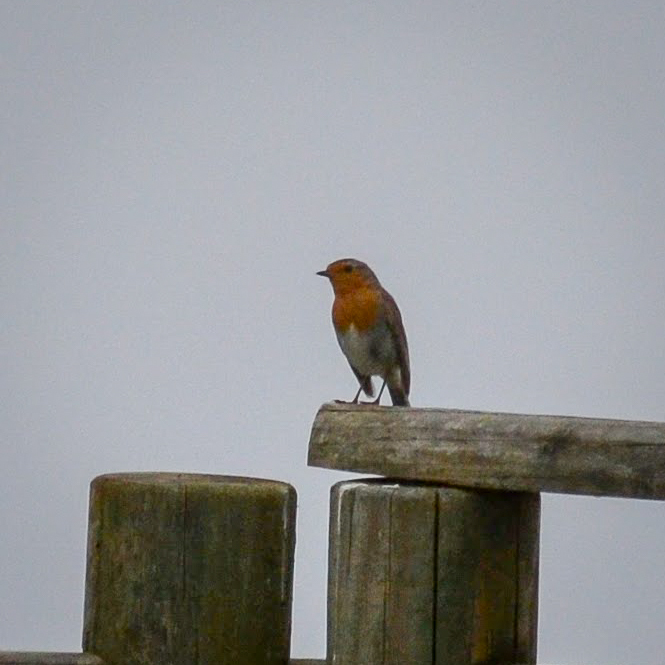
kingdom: Animalia
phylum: Chordata
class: Aves
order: Passeriformes
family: Muscicapidae
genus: Erithacus
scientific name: Erithacus rubecula
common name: European robin
